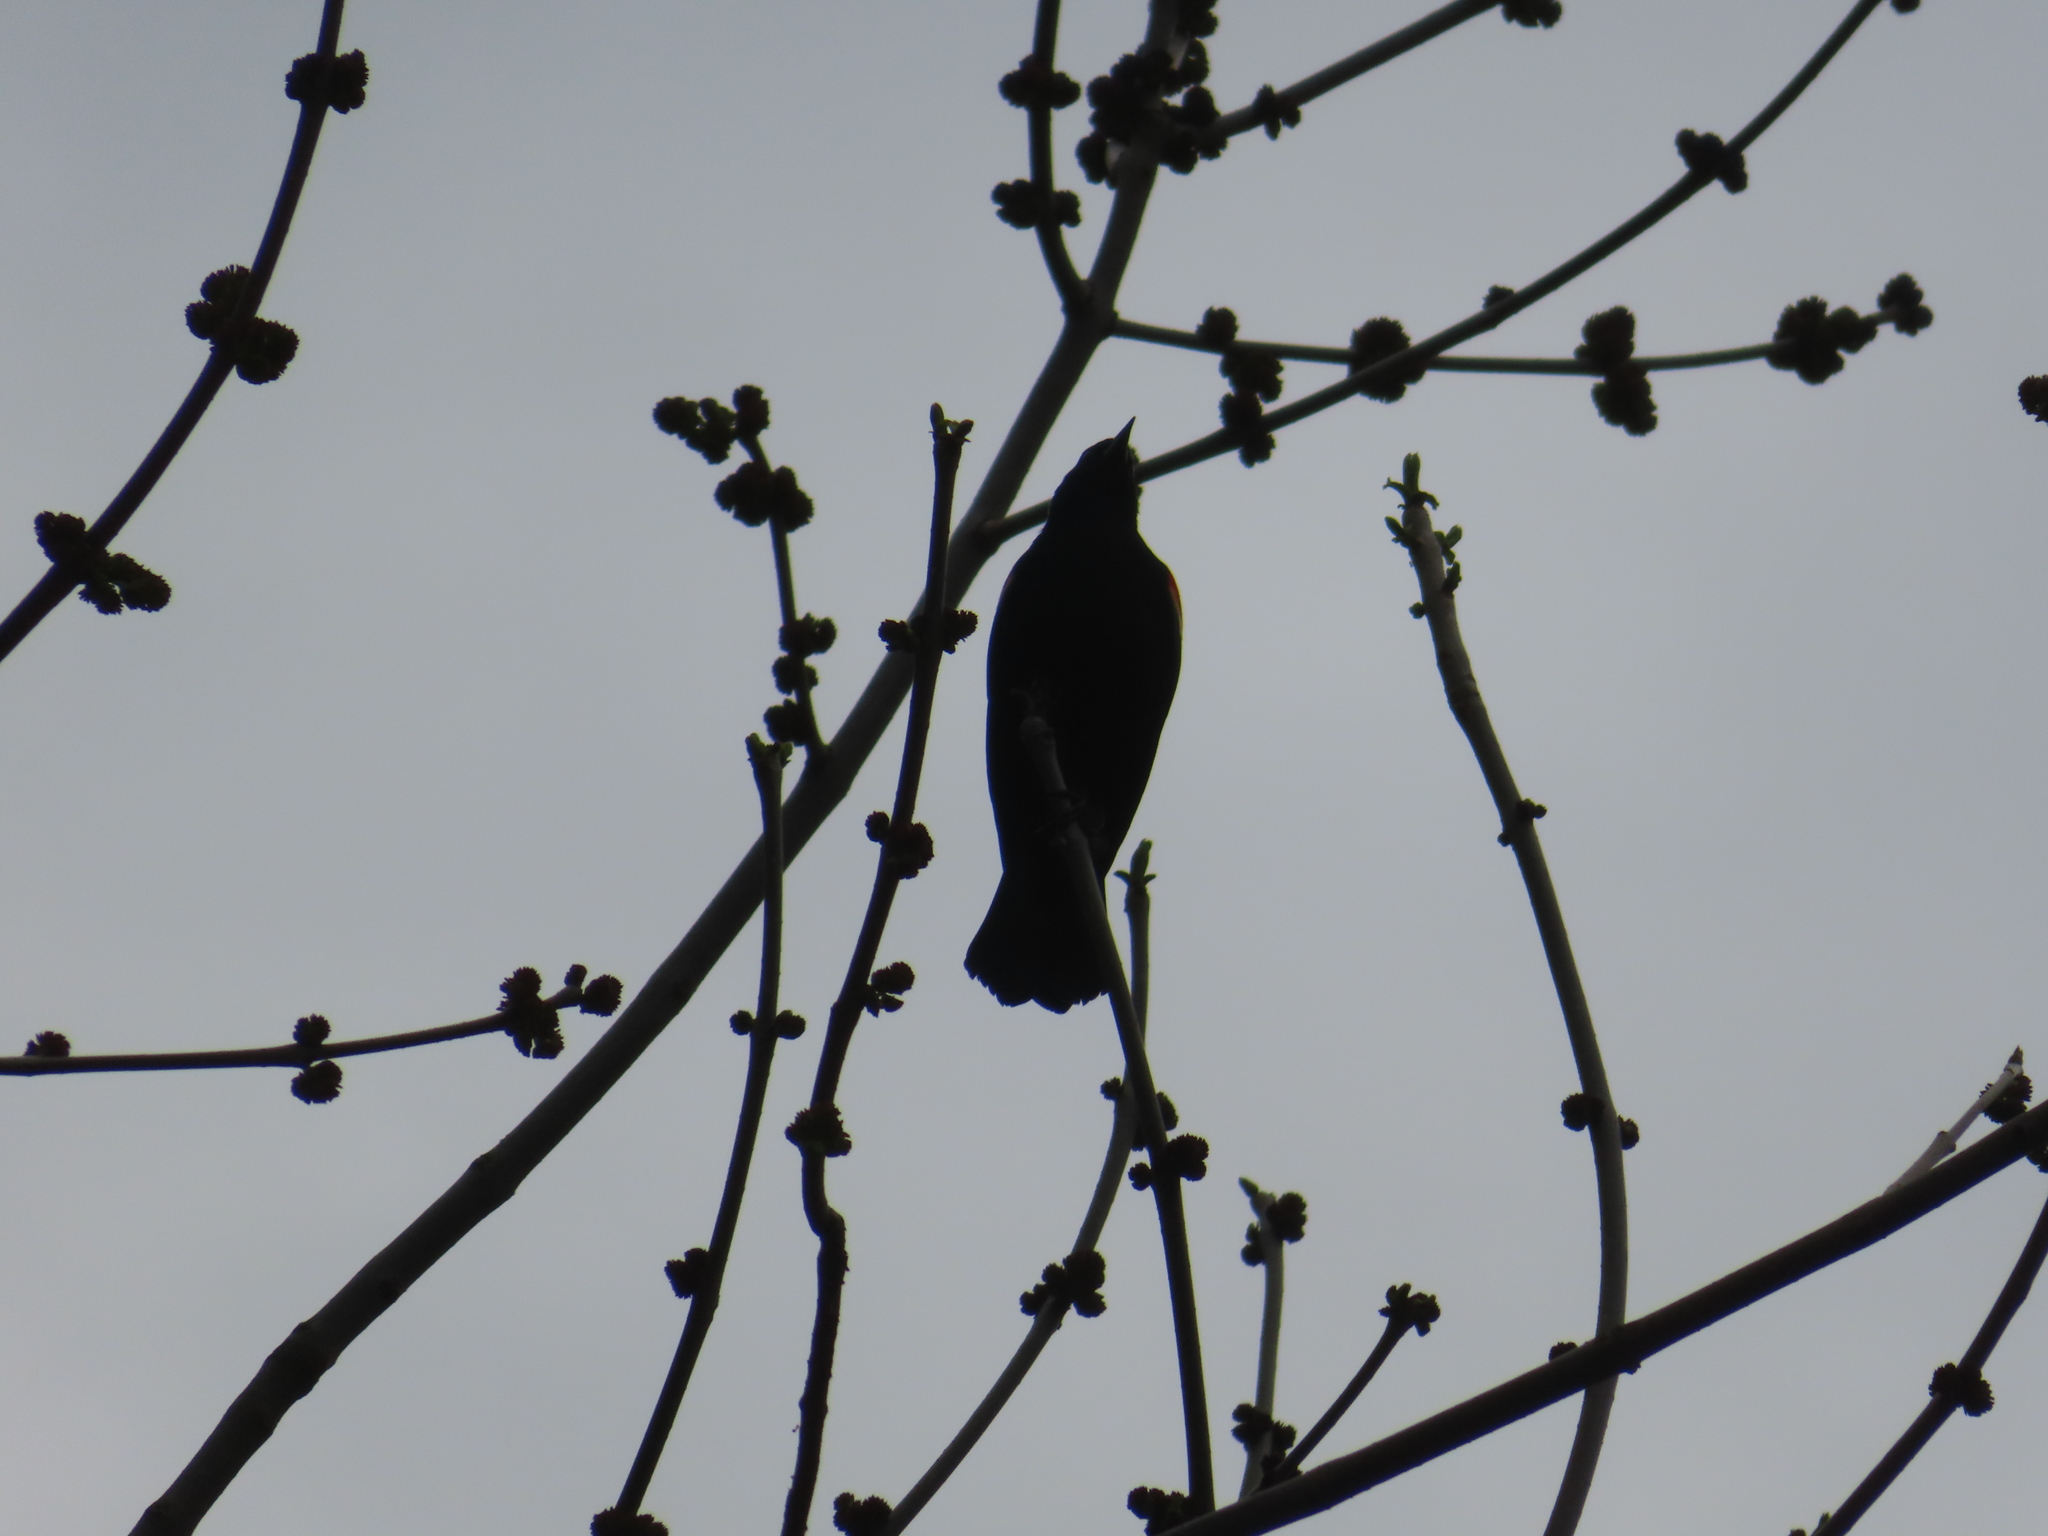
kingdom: Animalia
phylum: Chordata
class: Aves
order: Passeriformes
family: Icteridae
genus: Agelaius
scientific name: Agelaius phoeniceus
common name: Red-winged blackbird
